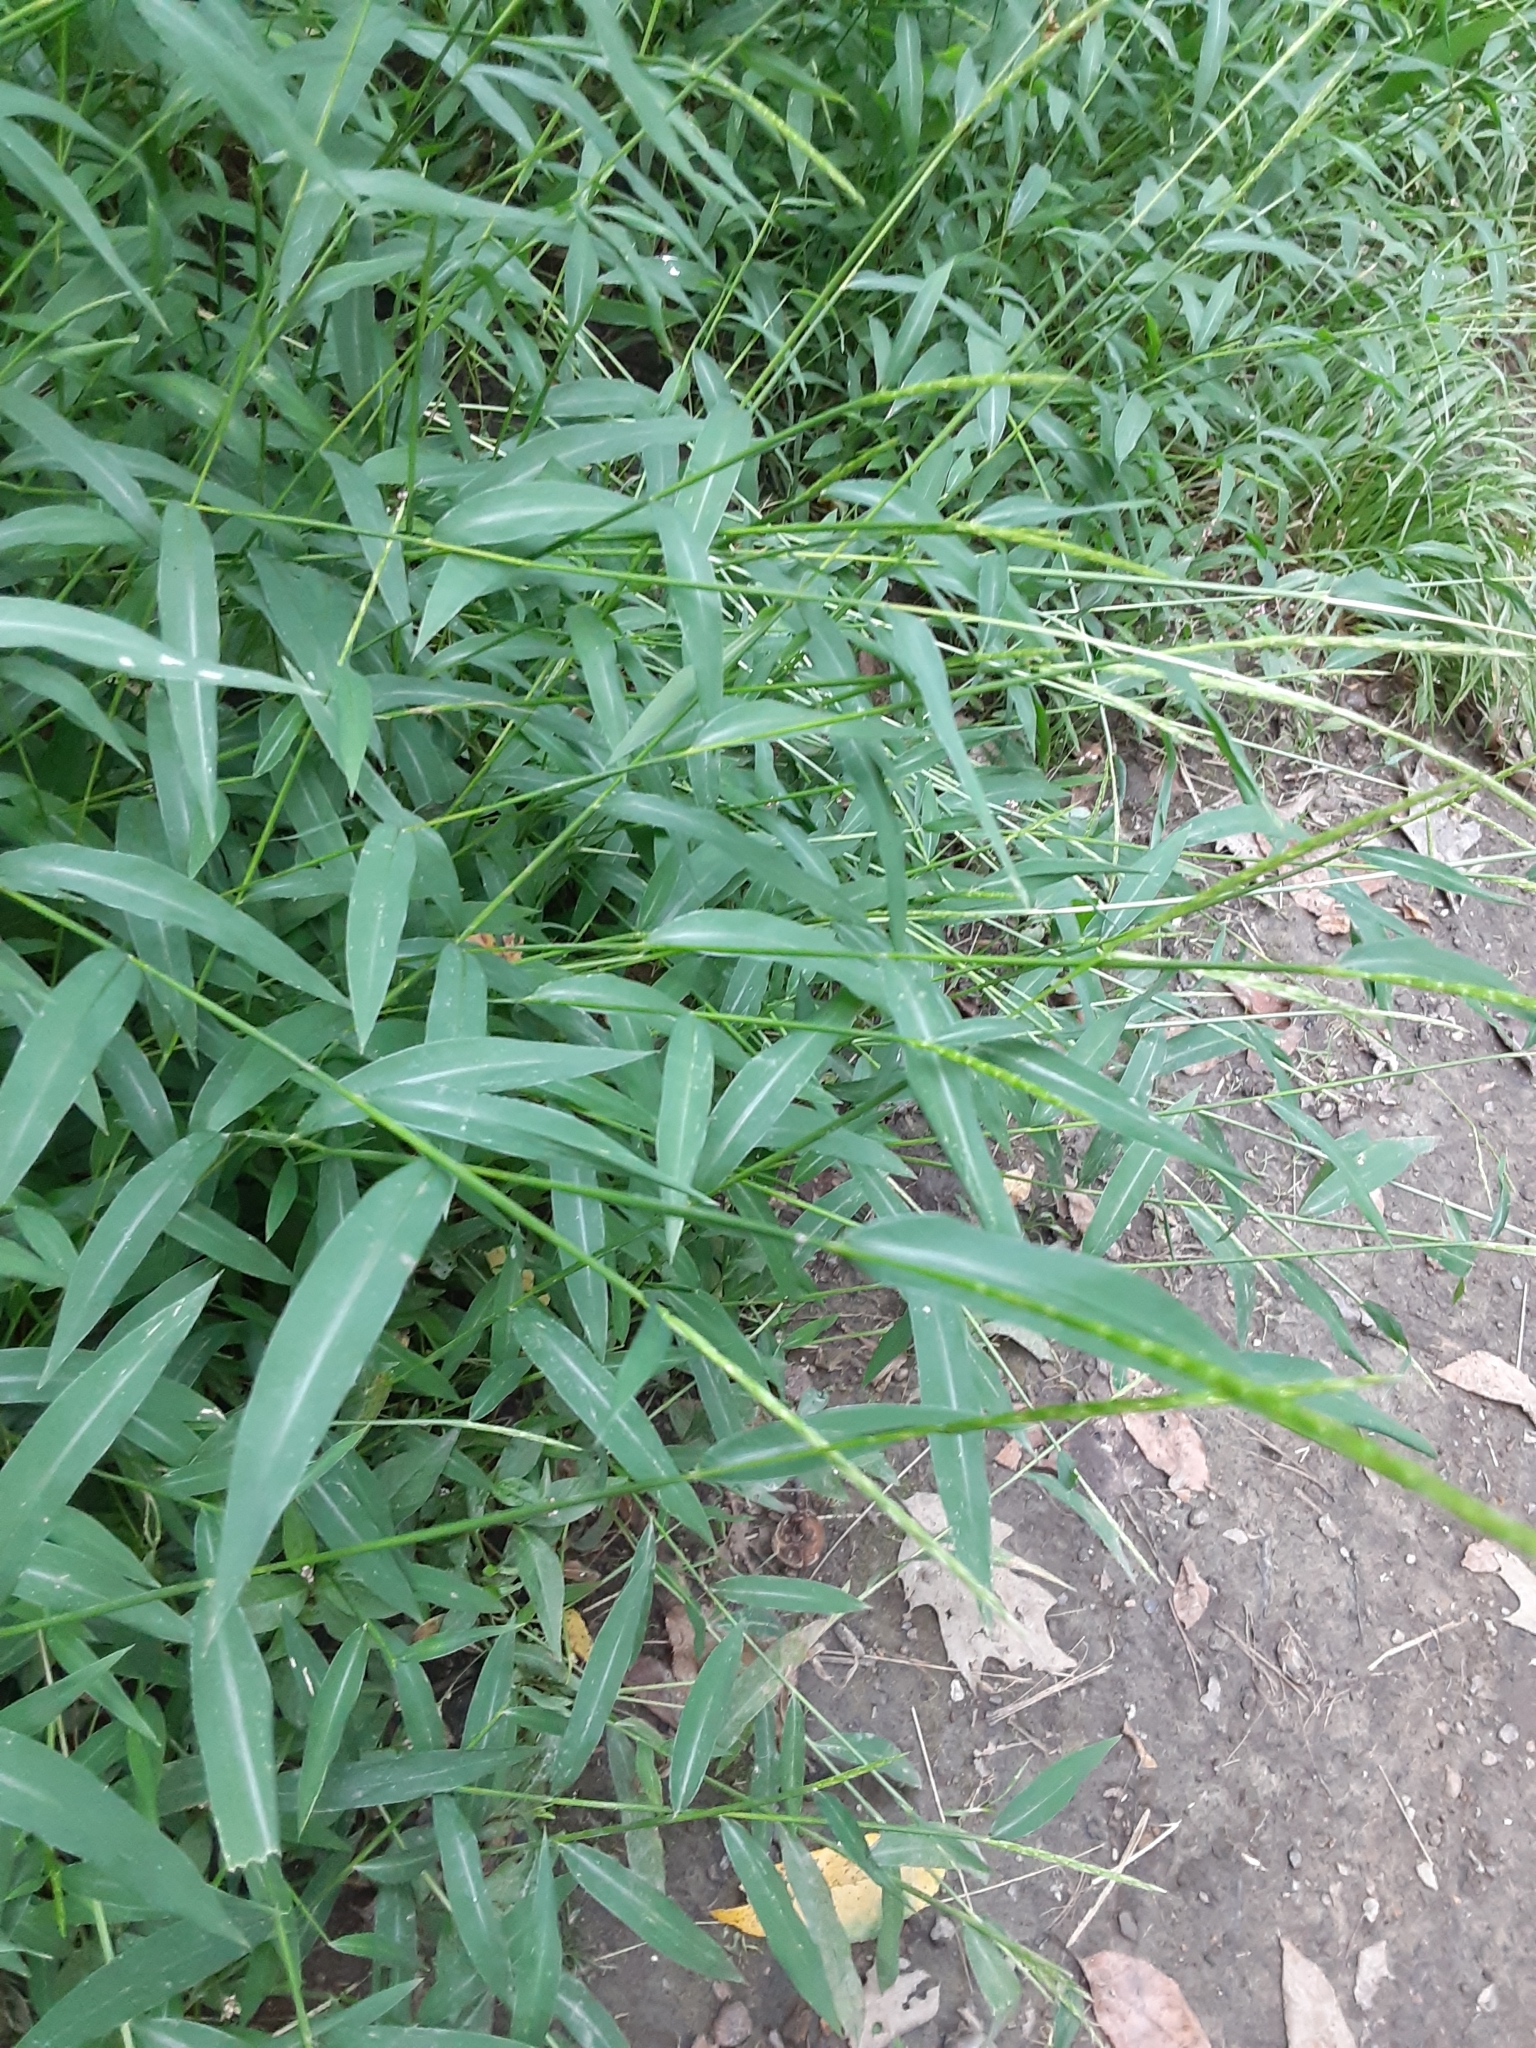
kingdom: Plantae
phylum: Tracheophyta
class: Liliopsida
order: Poales
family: Poaceae
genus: Microstegium
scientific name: Microstegium vimineum
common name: Japanese stiltgrass
